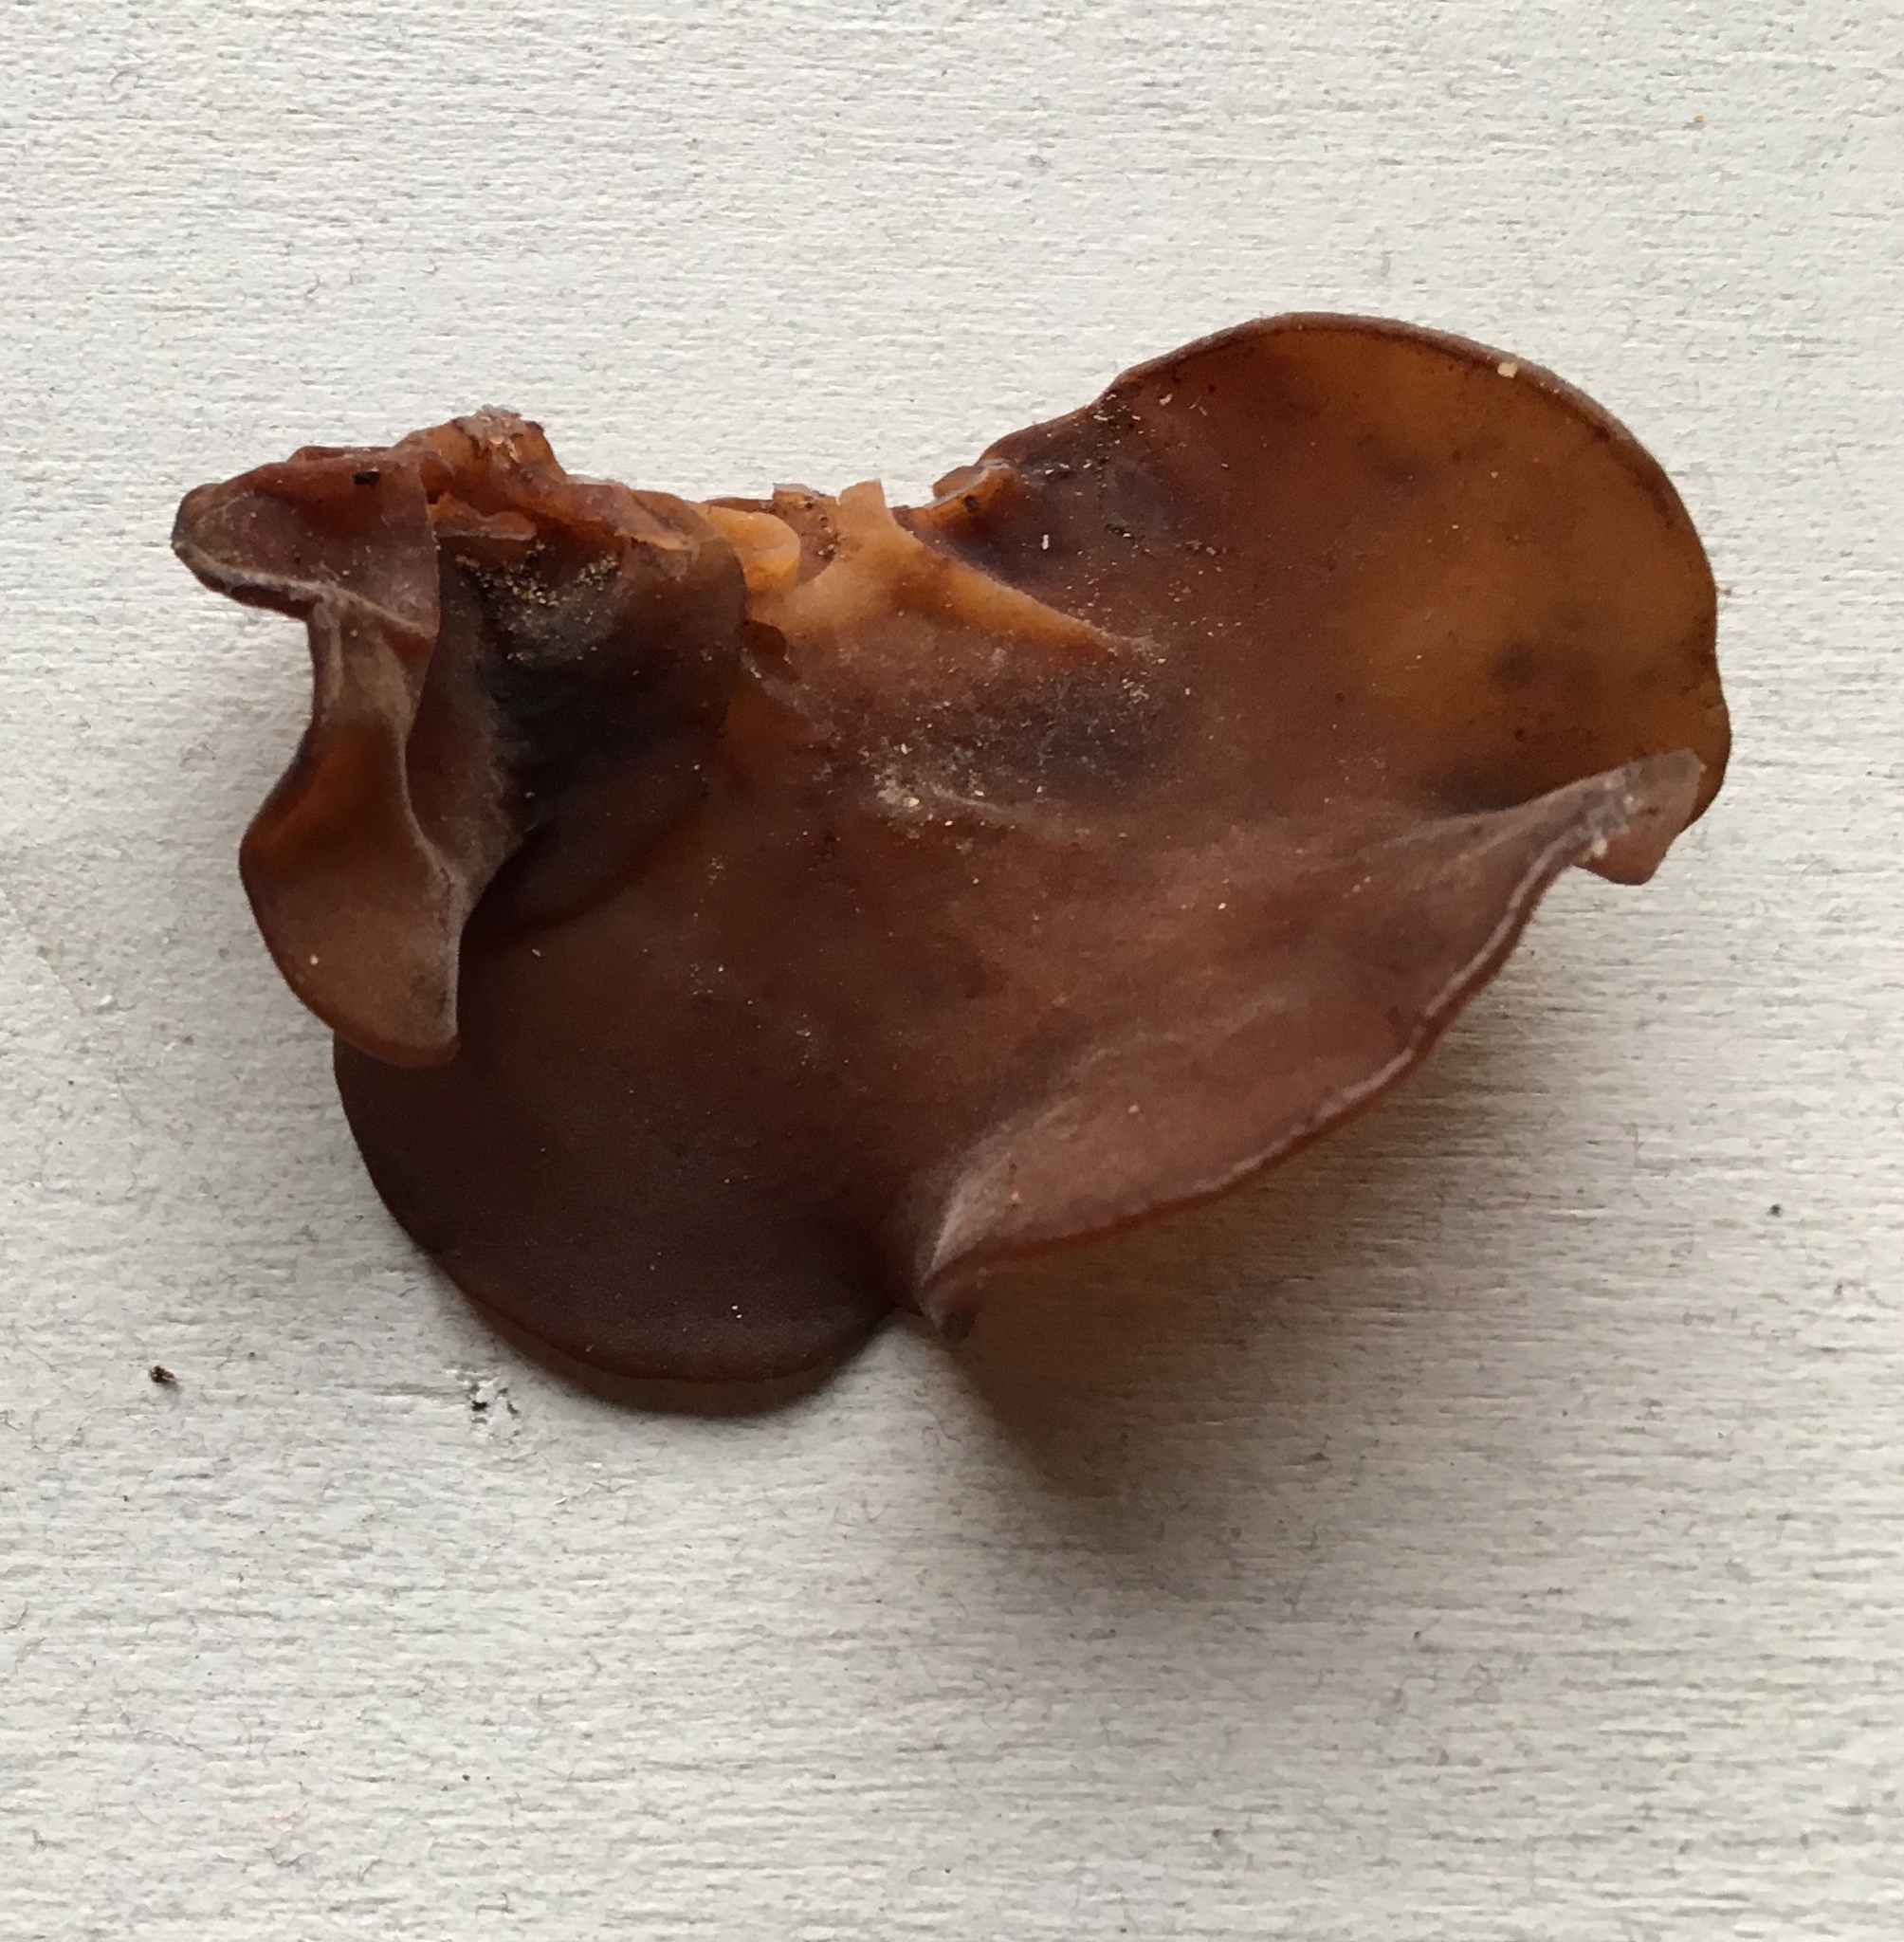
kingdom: Fungi
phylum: Basidiomycota
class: Agaricomycetes
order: Auriculariales
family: Auriculariaceae
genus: Auricularia
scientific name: Auricularia angiospermarum
